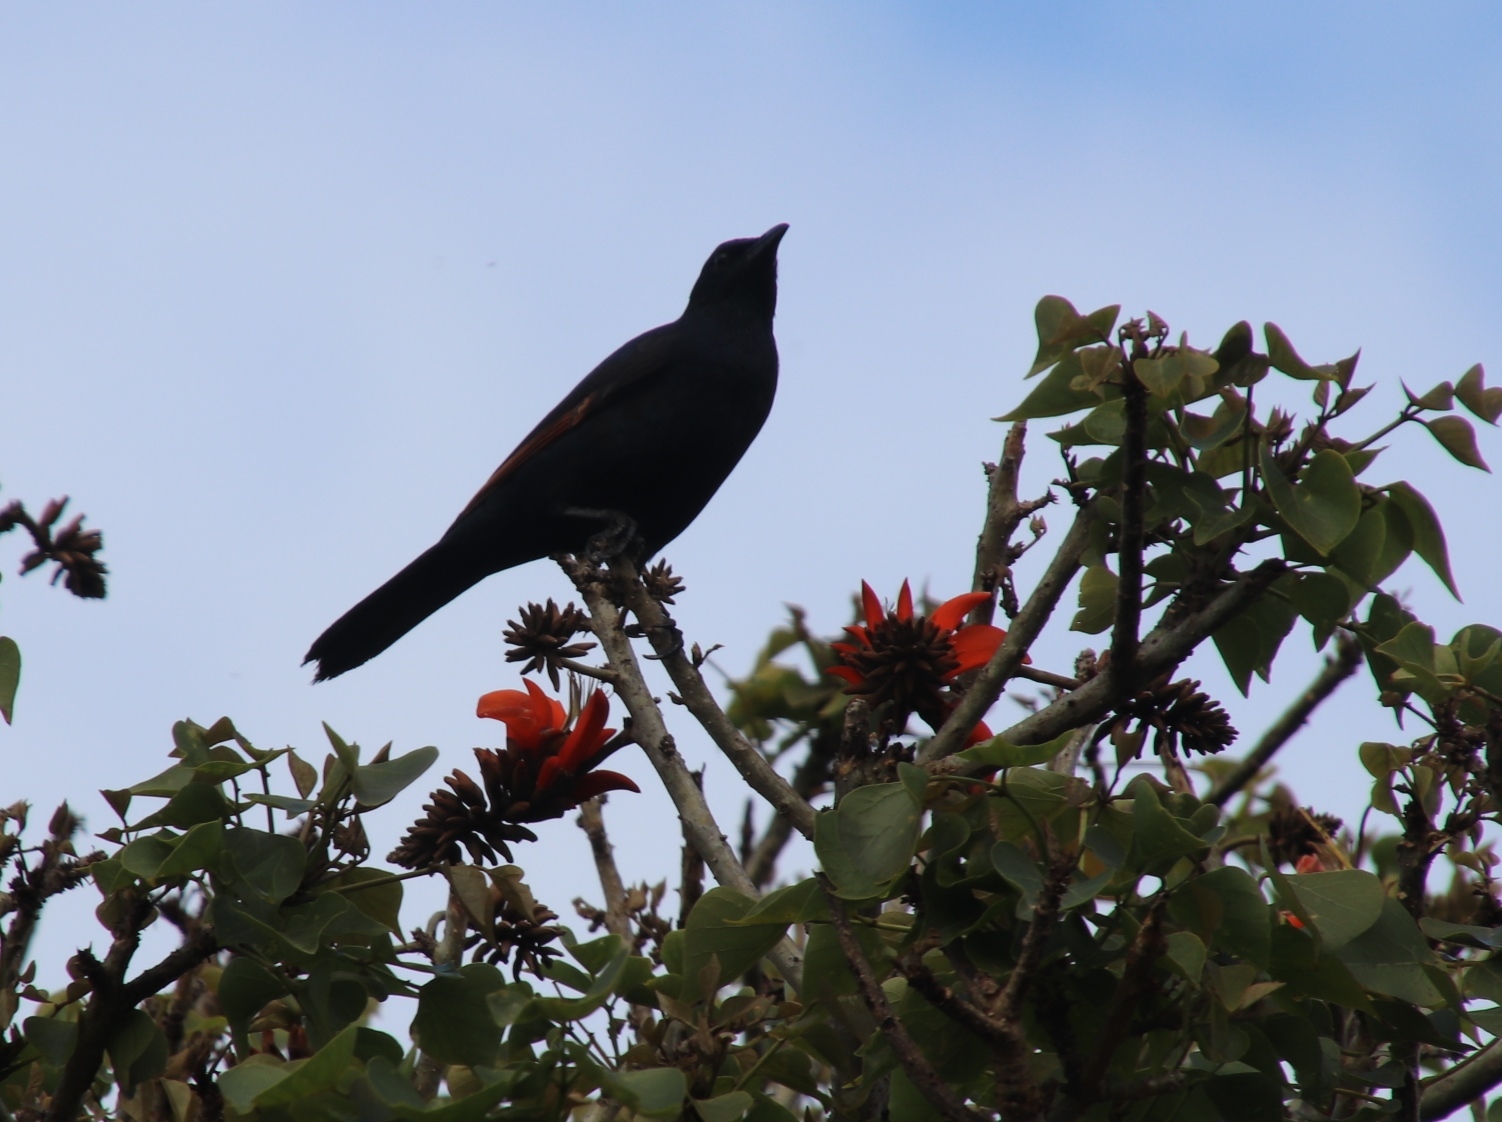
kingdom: Animalia
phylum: Chordata
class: Aves
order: Passeriformes
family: Sturnidae
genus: Onychognathus
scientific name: Onychognathus morio
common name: Red-winged starling
